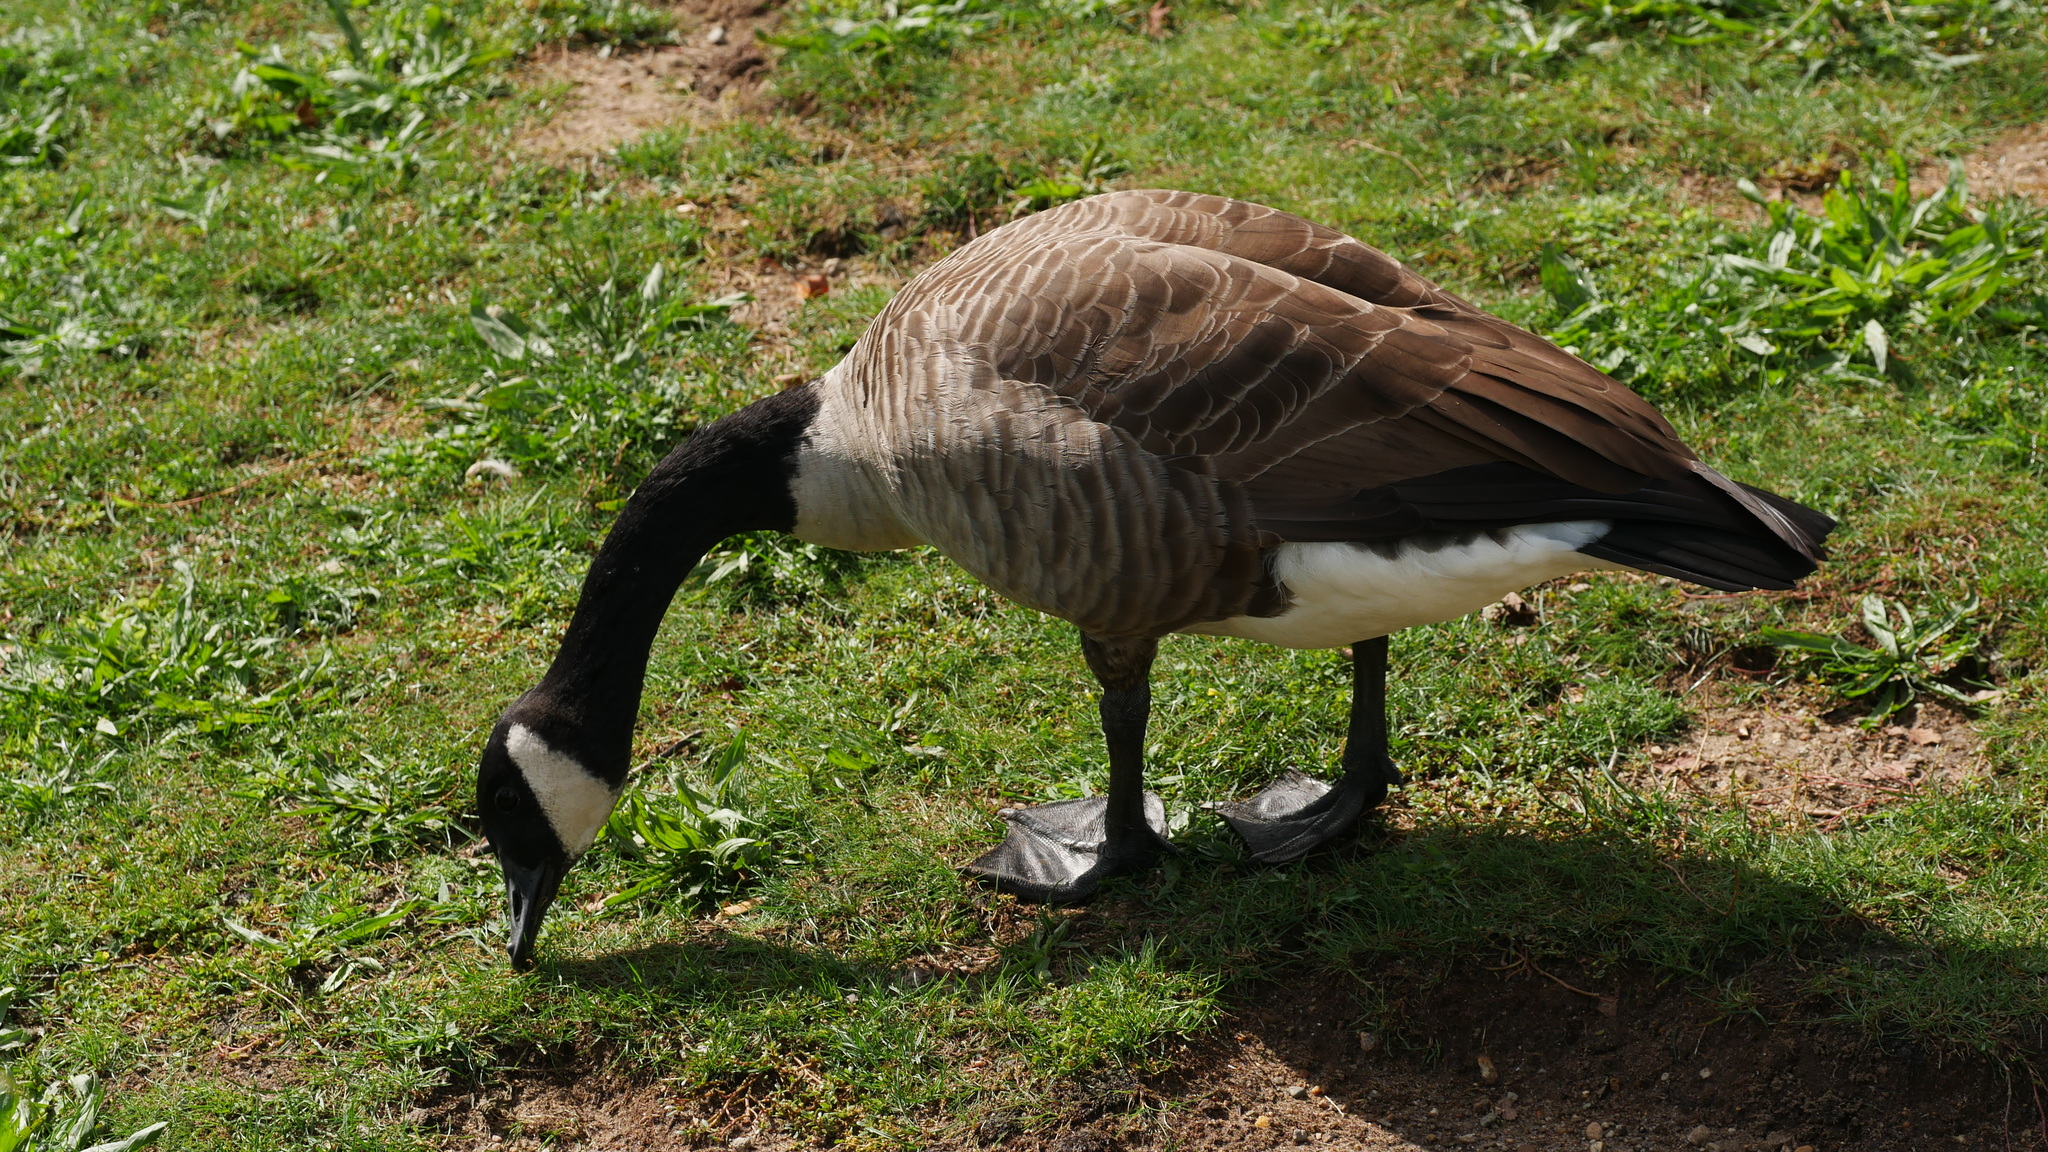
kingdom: Animalia
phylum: Chordata
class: Aves
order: Anseriformes
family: Anatidae
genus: Branta
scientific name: Branta canadensis
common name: Canada goose
